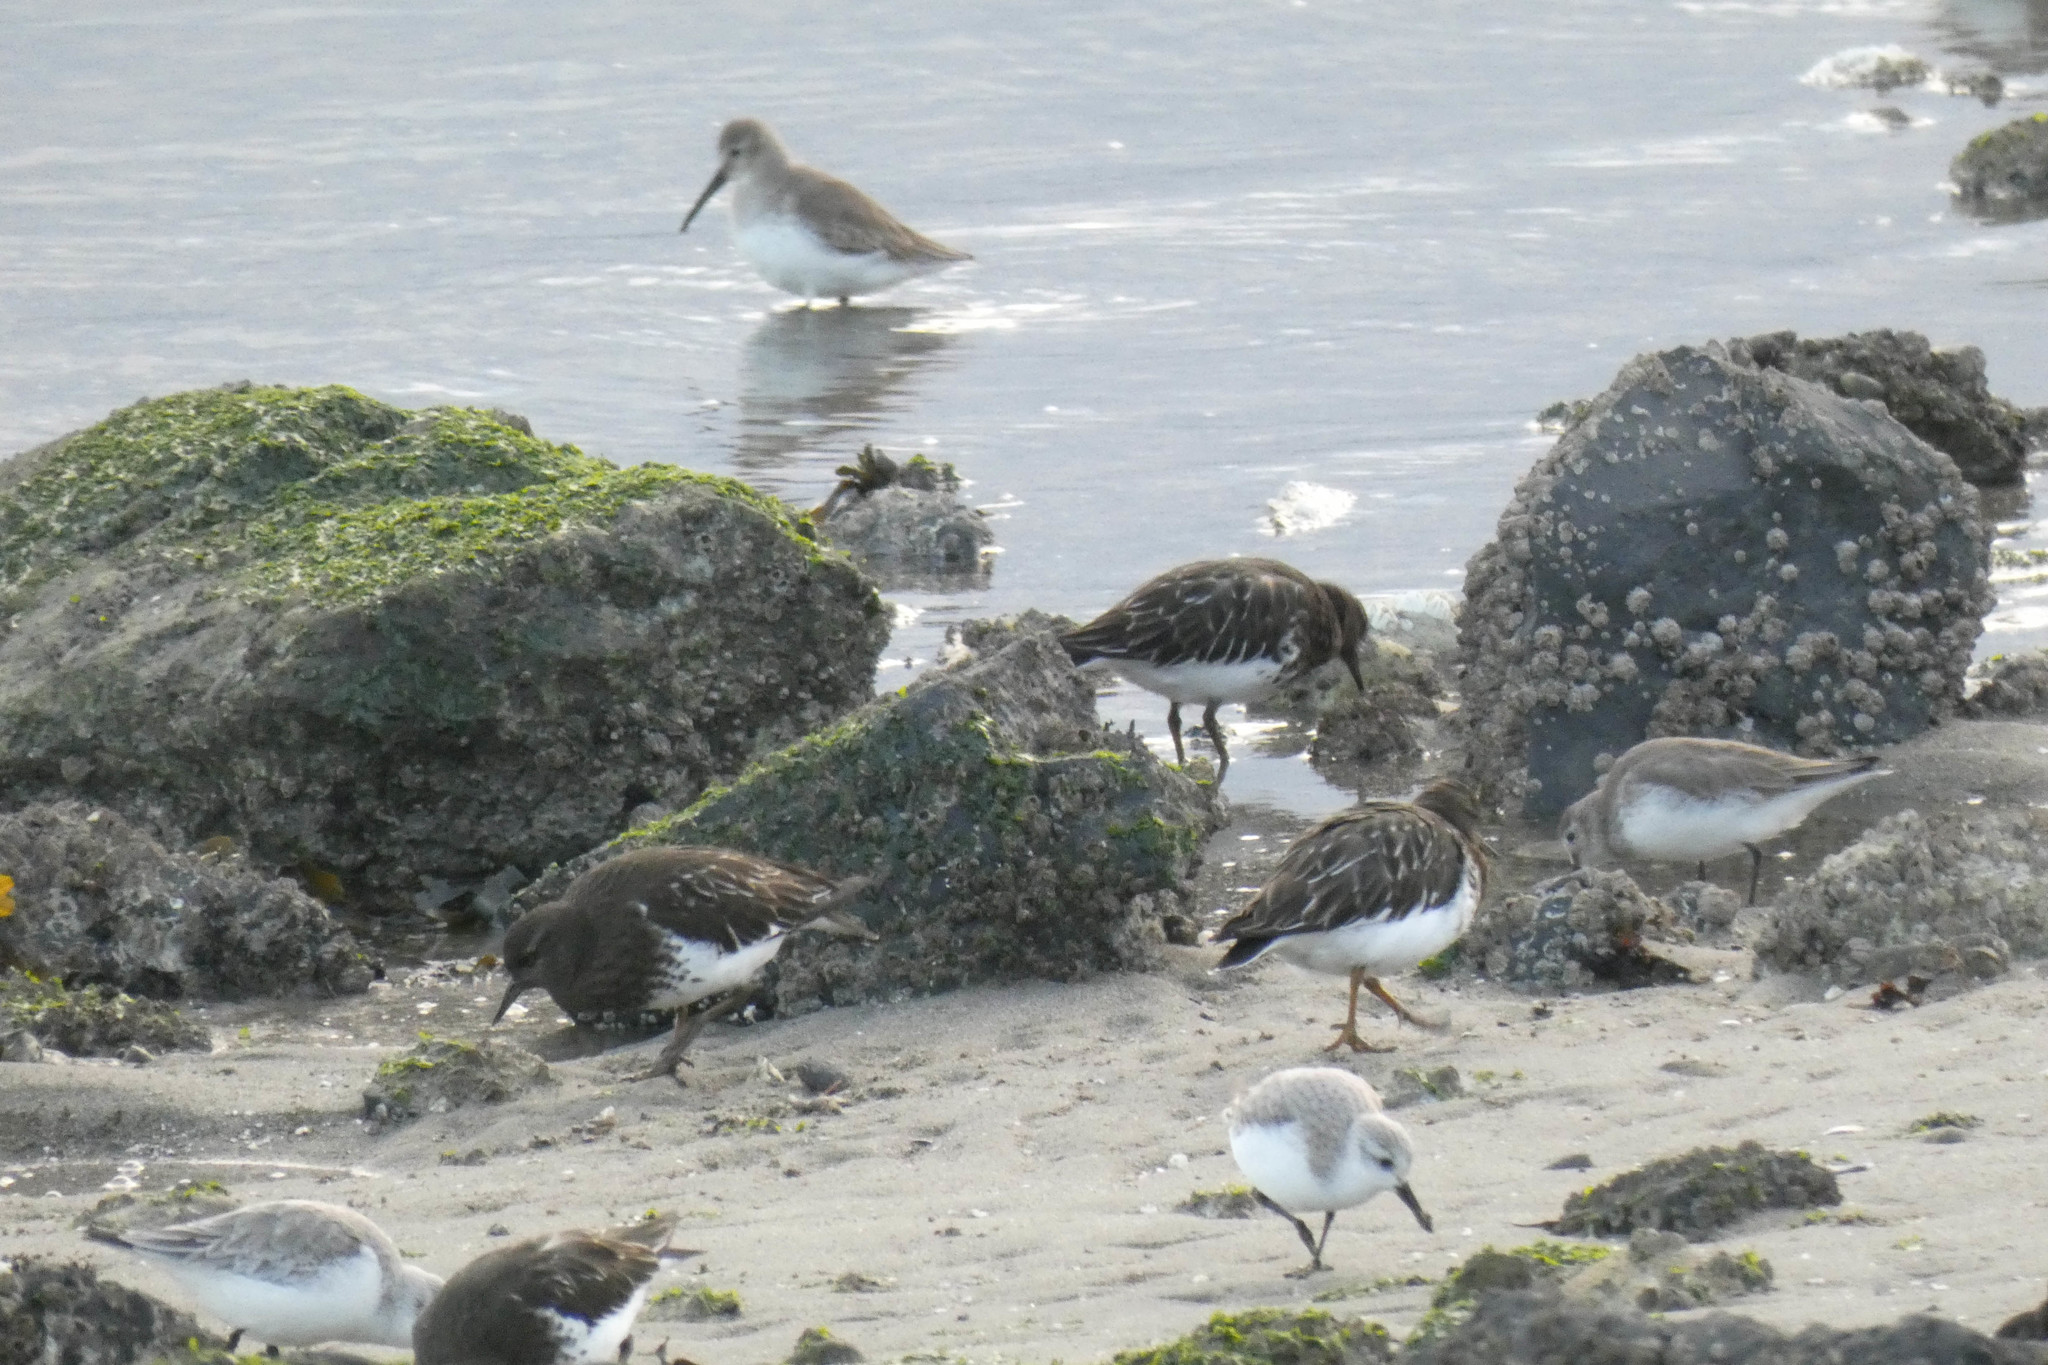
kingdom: Animalia
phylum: Chordata
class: Aves
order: Charadriiformes
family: Scolopacidae
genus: Arenaria
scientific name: Arenaria melanocephala
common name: Black turnstone
